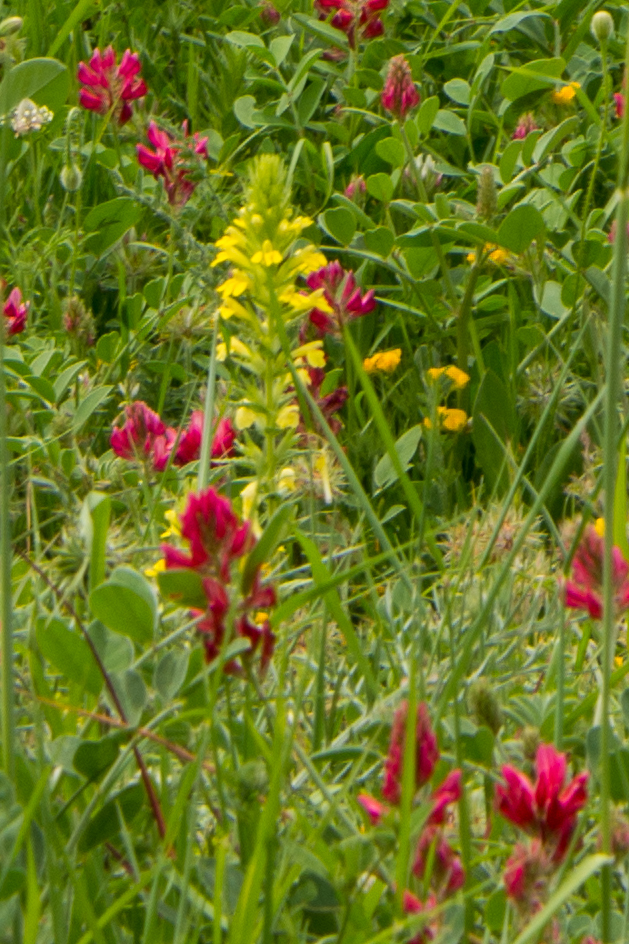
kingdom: Plantae
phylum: Tracheophyta
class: Magnoliopsida
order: Lamiales
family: Orobanchaceae
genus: Bellardia
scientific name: Bellardia viscosa
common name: Sticky parentucellia
